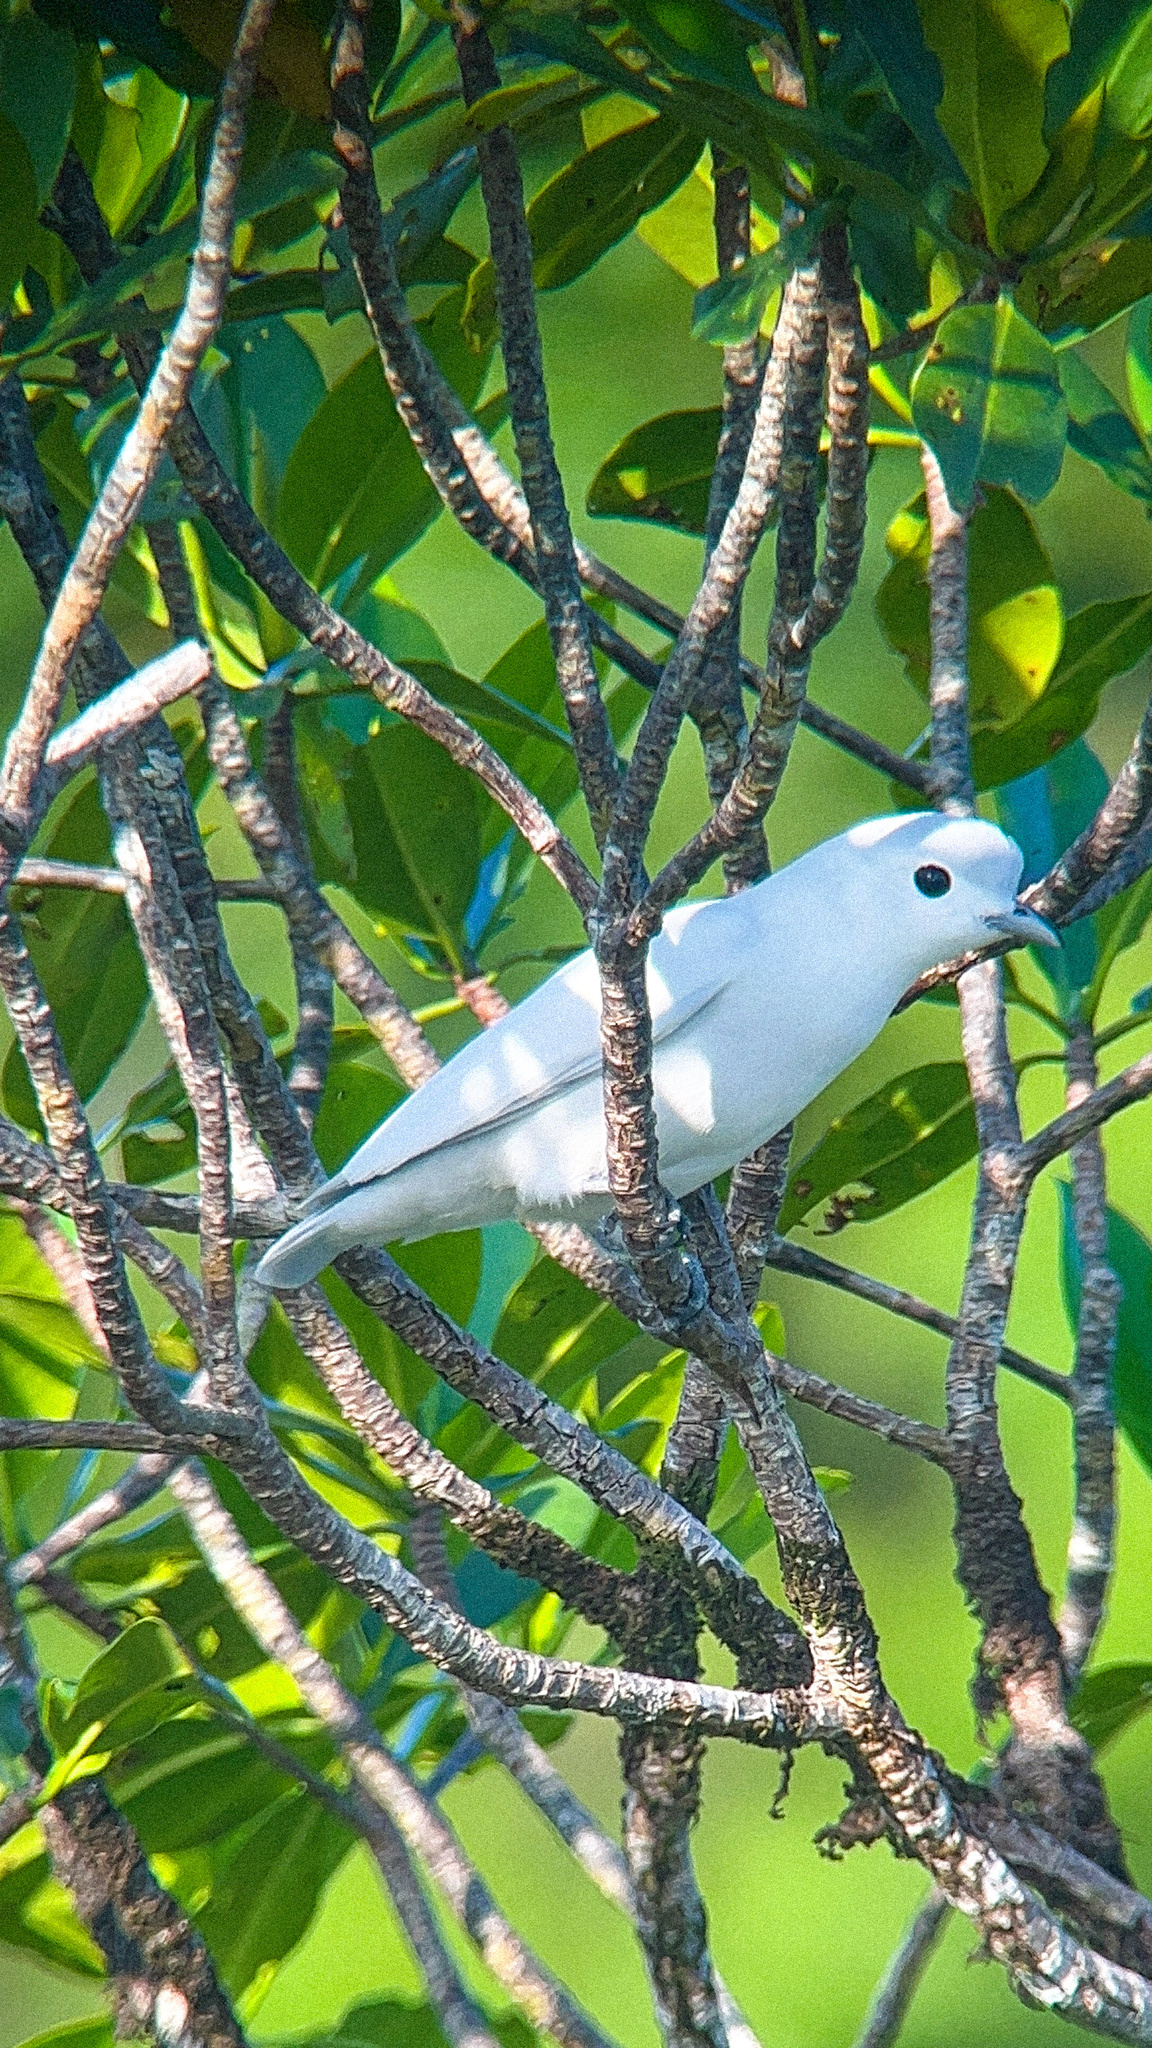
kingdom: Animalia
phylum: Chordata
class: Aves
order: Passeriformes
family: Cotingidae
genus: Carpodectes
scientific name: Carpodectes nitidus
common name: Snowy cotinga
